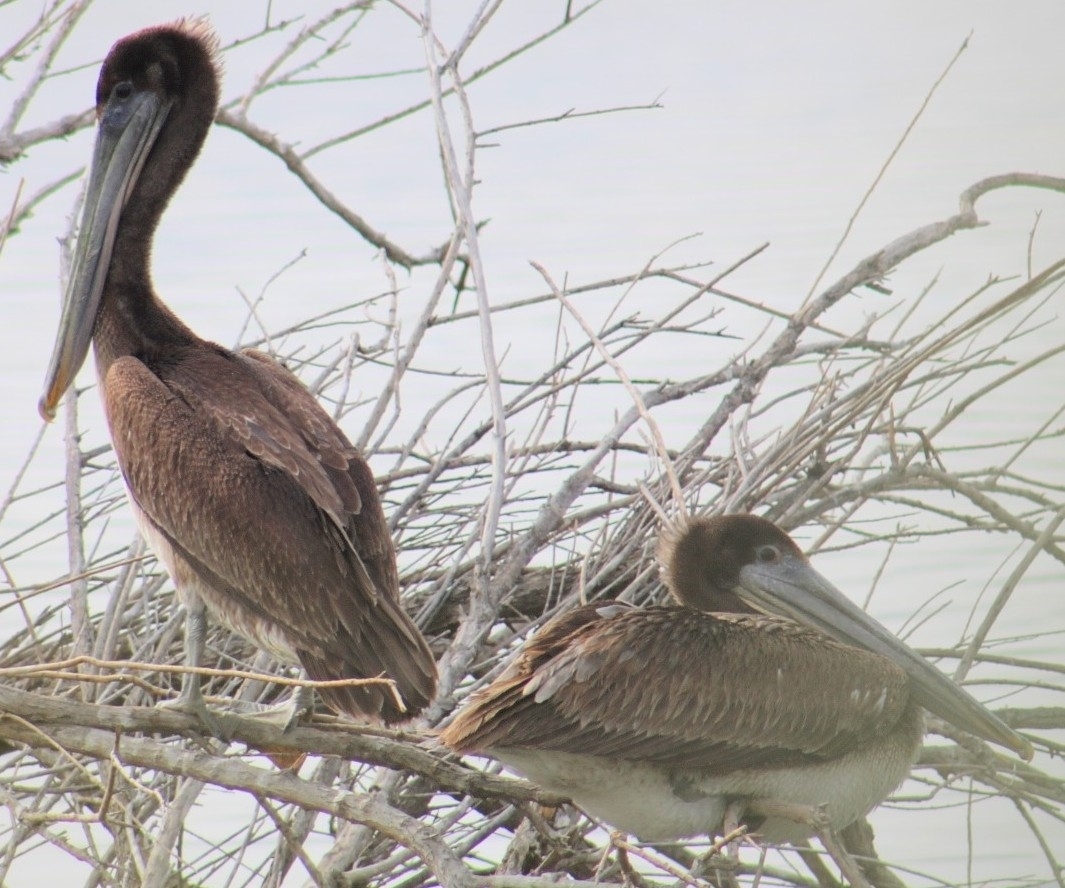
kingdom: Animalia
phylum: Chordata
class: Aves
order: Pelecaniformes
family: Pelecanidae
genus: Pelecanus
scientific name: Pelecanus occidentalis
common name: Brown pelican
